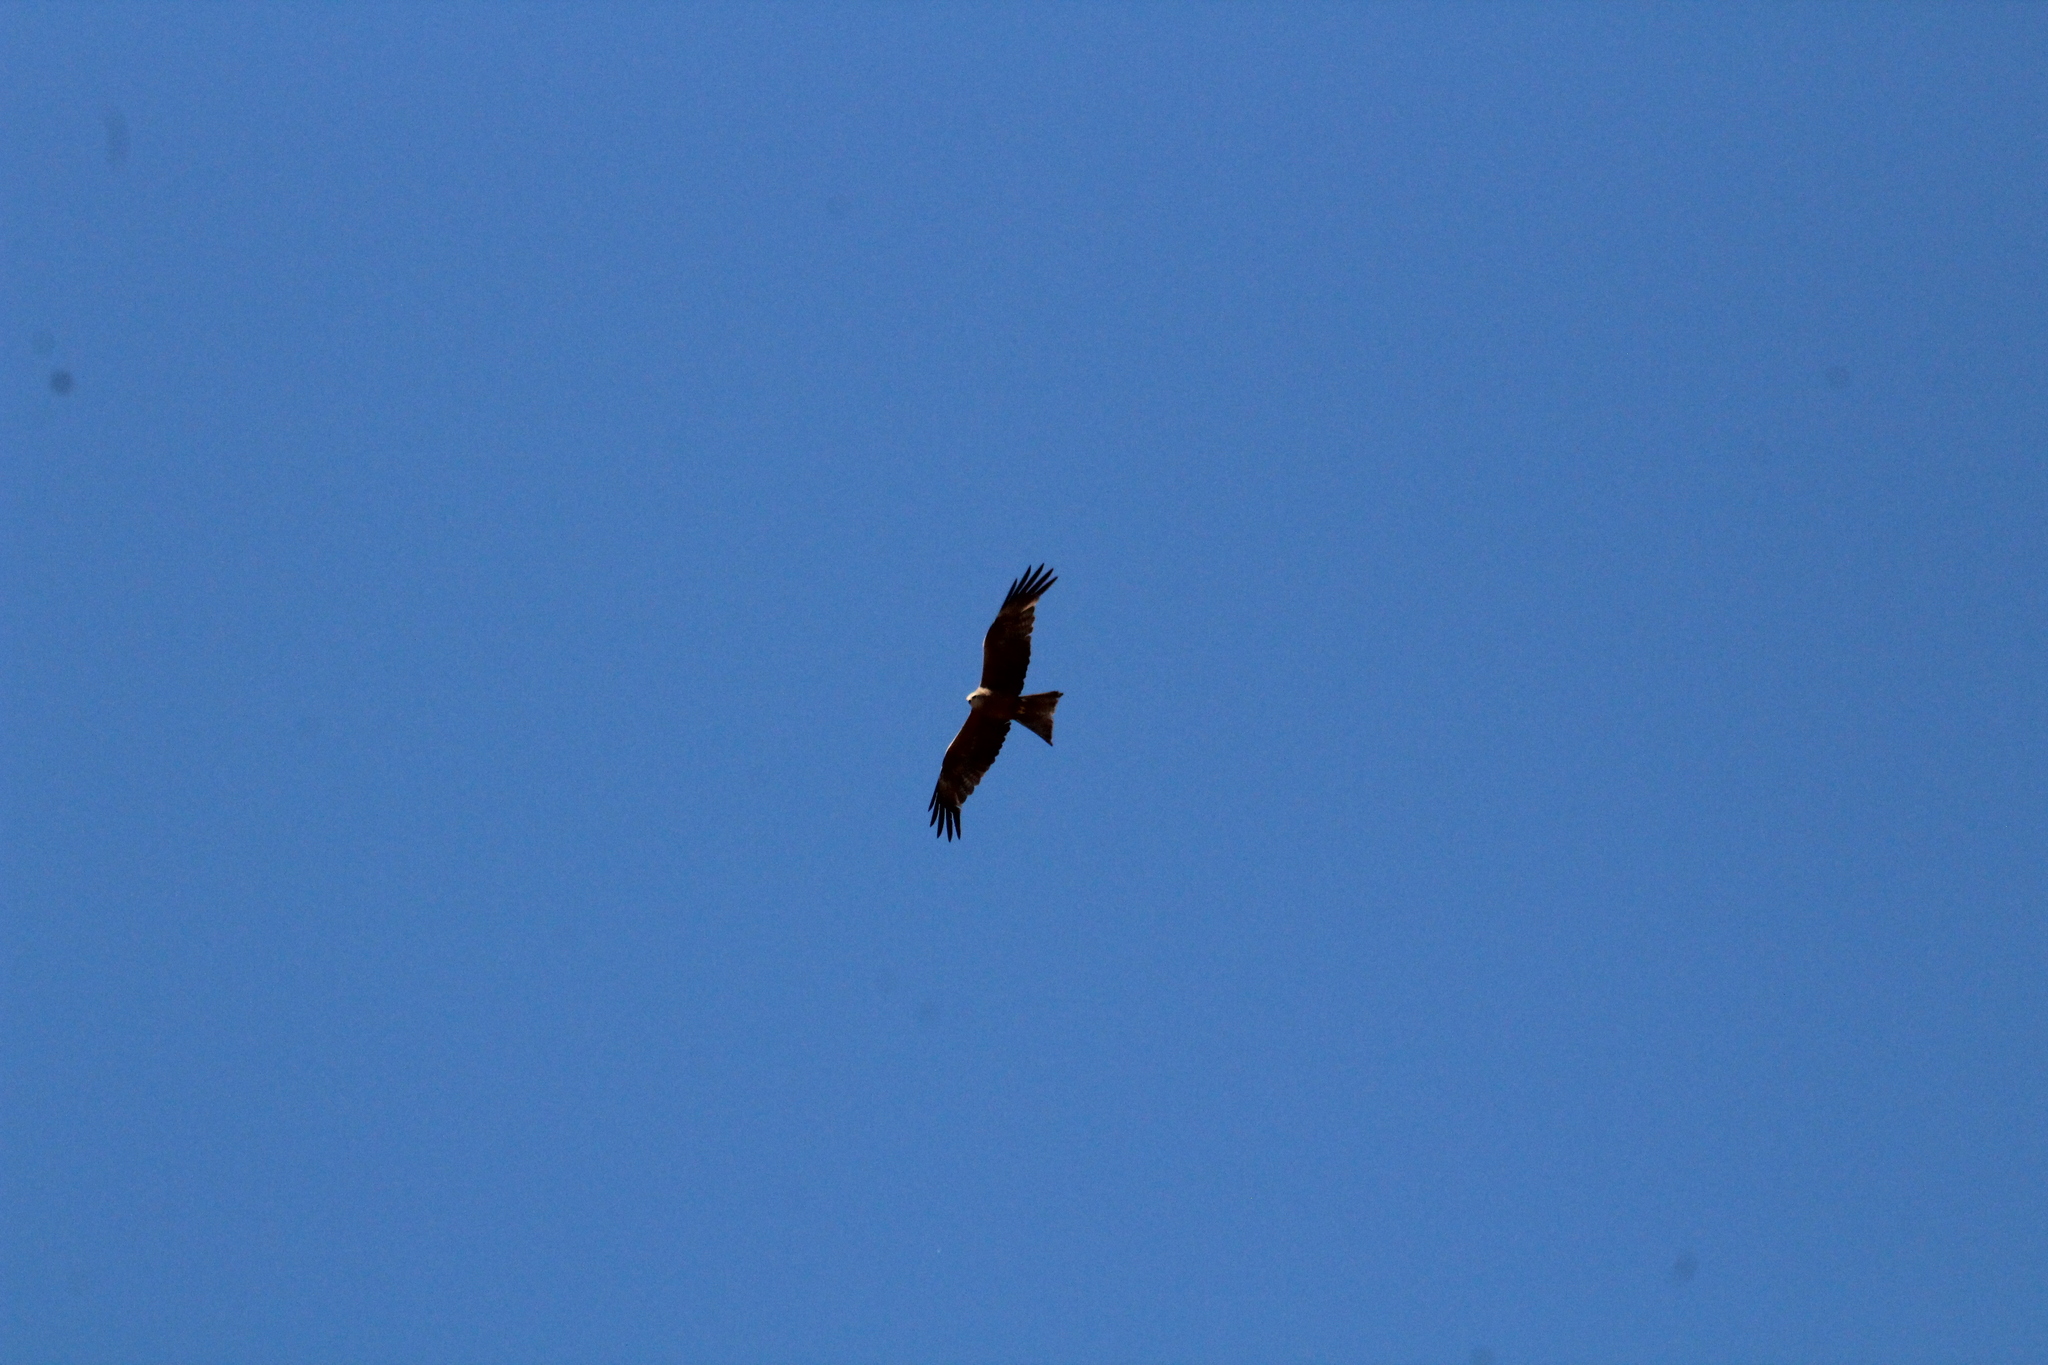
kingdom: Animalia
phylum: Chordata
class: Aves
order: Accipitriformes
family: Accipitridae
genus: Milvus
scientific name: Milvus migrans
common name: Black kite
